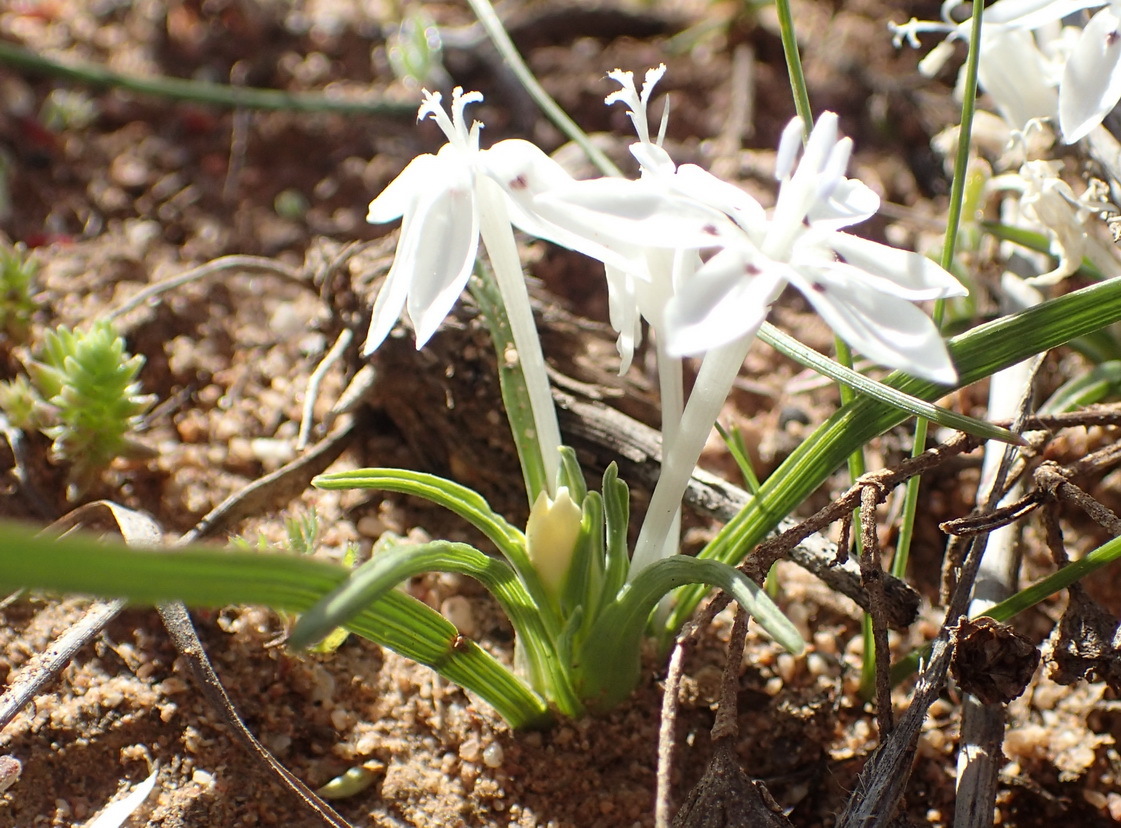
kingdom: Plantae
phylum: Tracheophyta
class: Liliopsida
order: Asparagales
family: Iridaceae
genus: Lapeirousia
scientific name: Lapeirousia plicata
